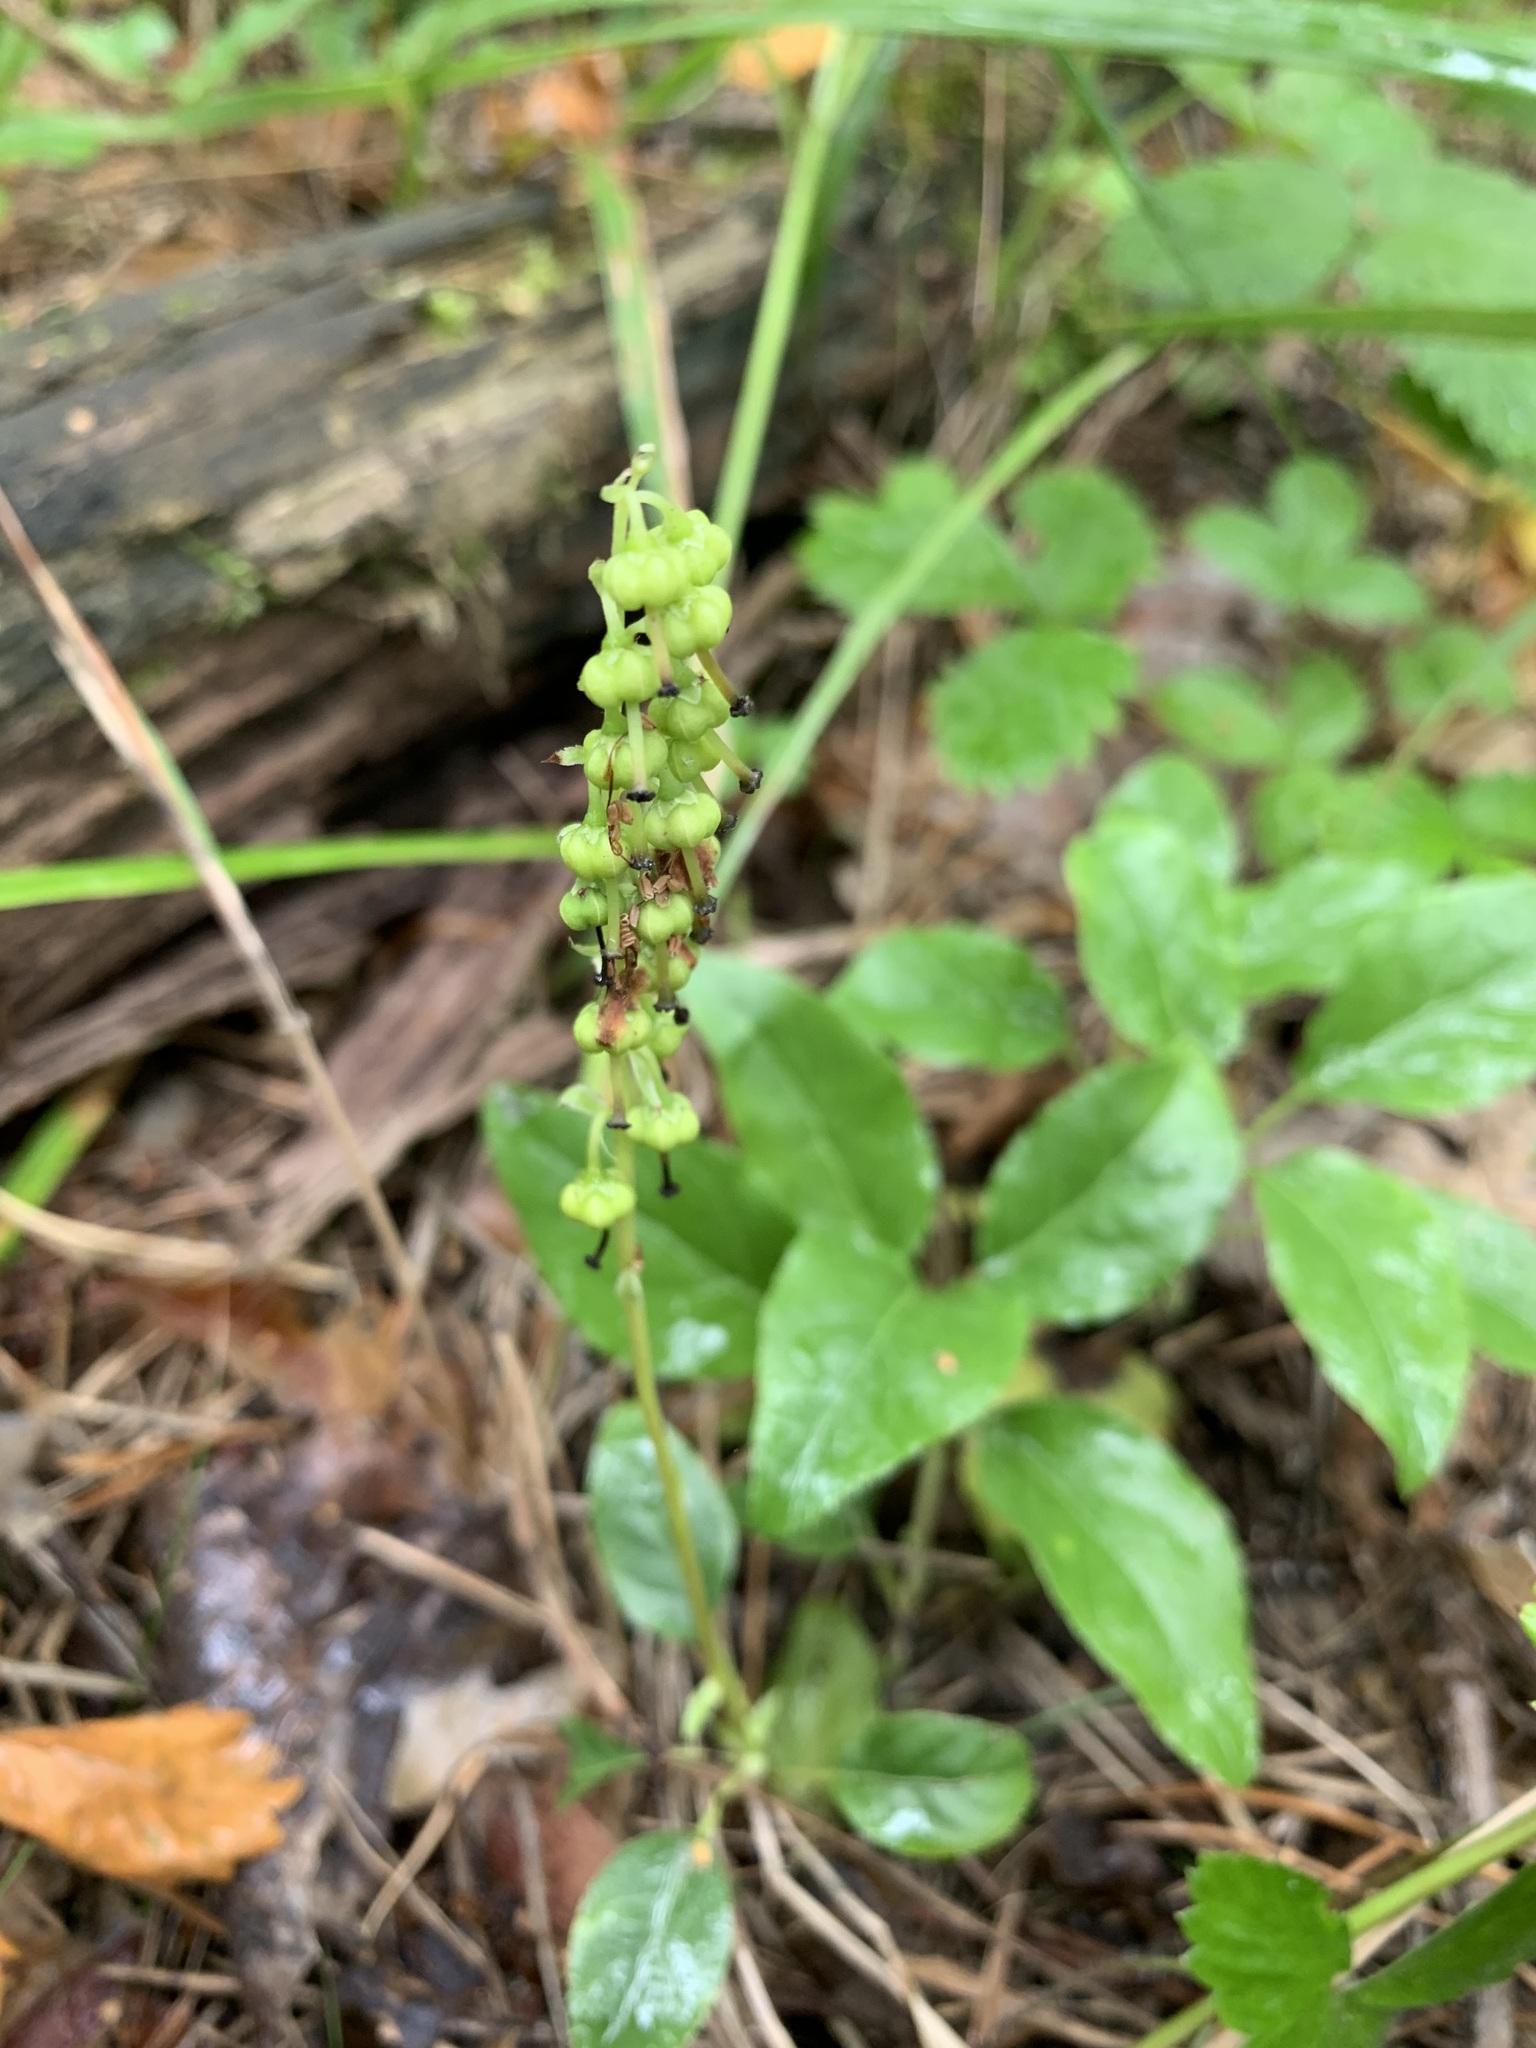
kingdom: Plantae
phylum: Tracheophyta
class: Magnoliopsida
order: Ericales
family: Ericaceae
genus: Orthilia
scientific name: Orthilia secunda
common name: One-sided orthilia
